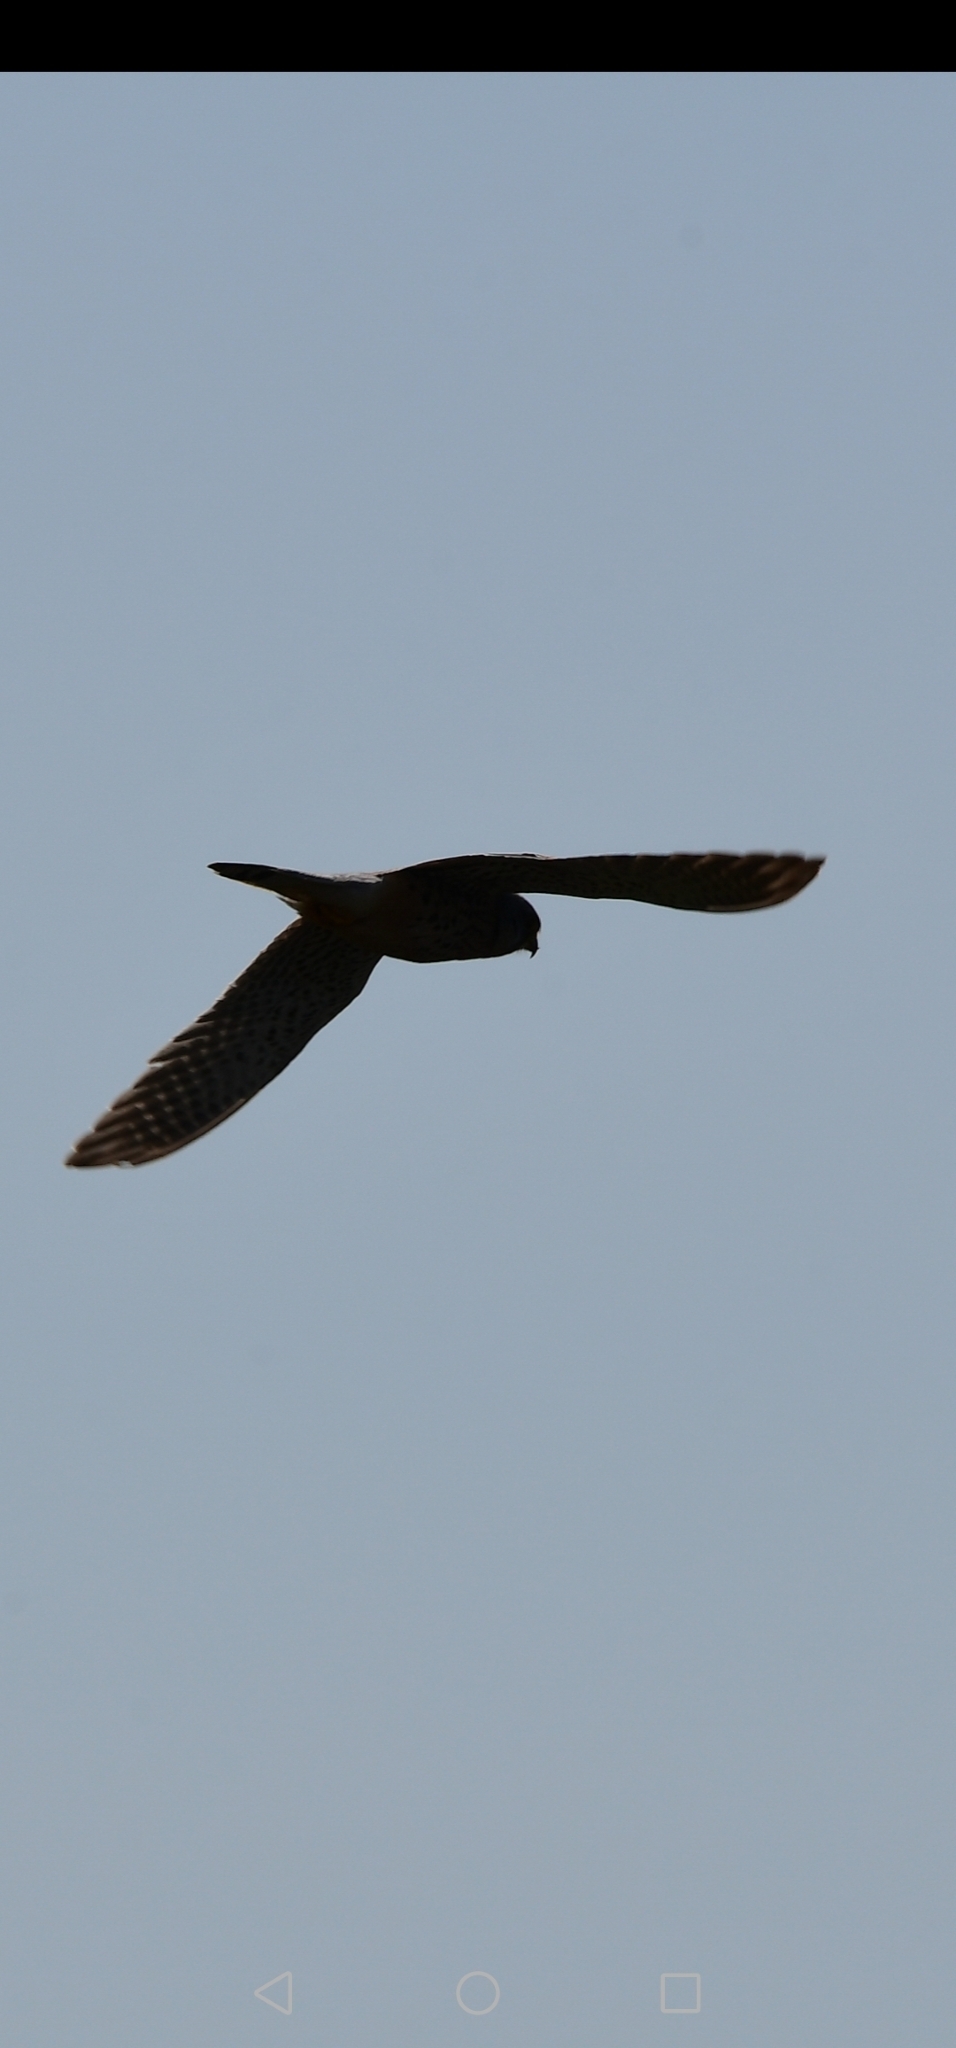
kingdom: Animalia
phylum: Chordata
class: Aves
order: Falconiformes
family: Falconidae
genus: Falco
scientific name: Falco tinnunculus
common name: Common kestrel
